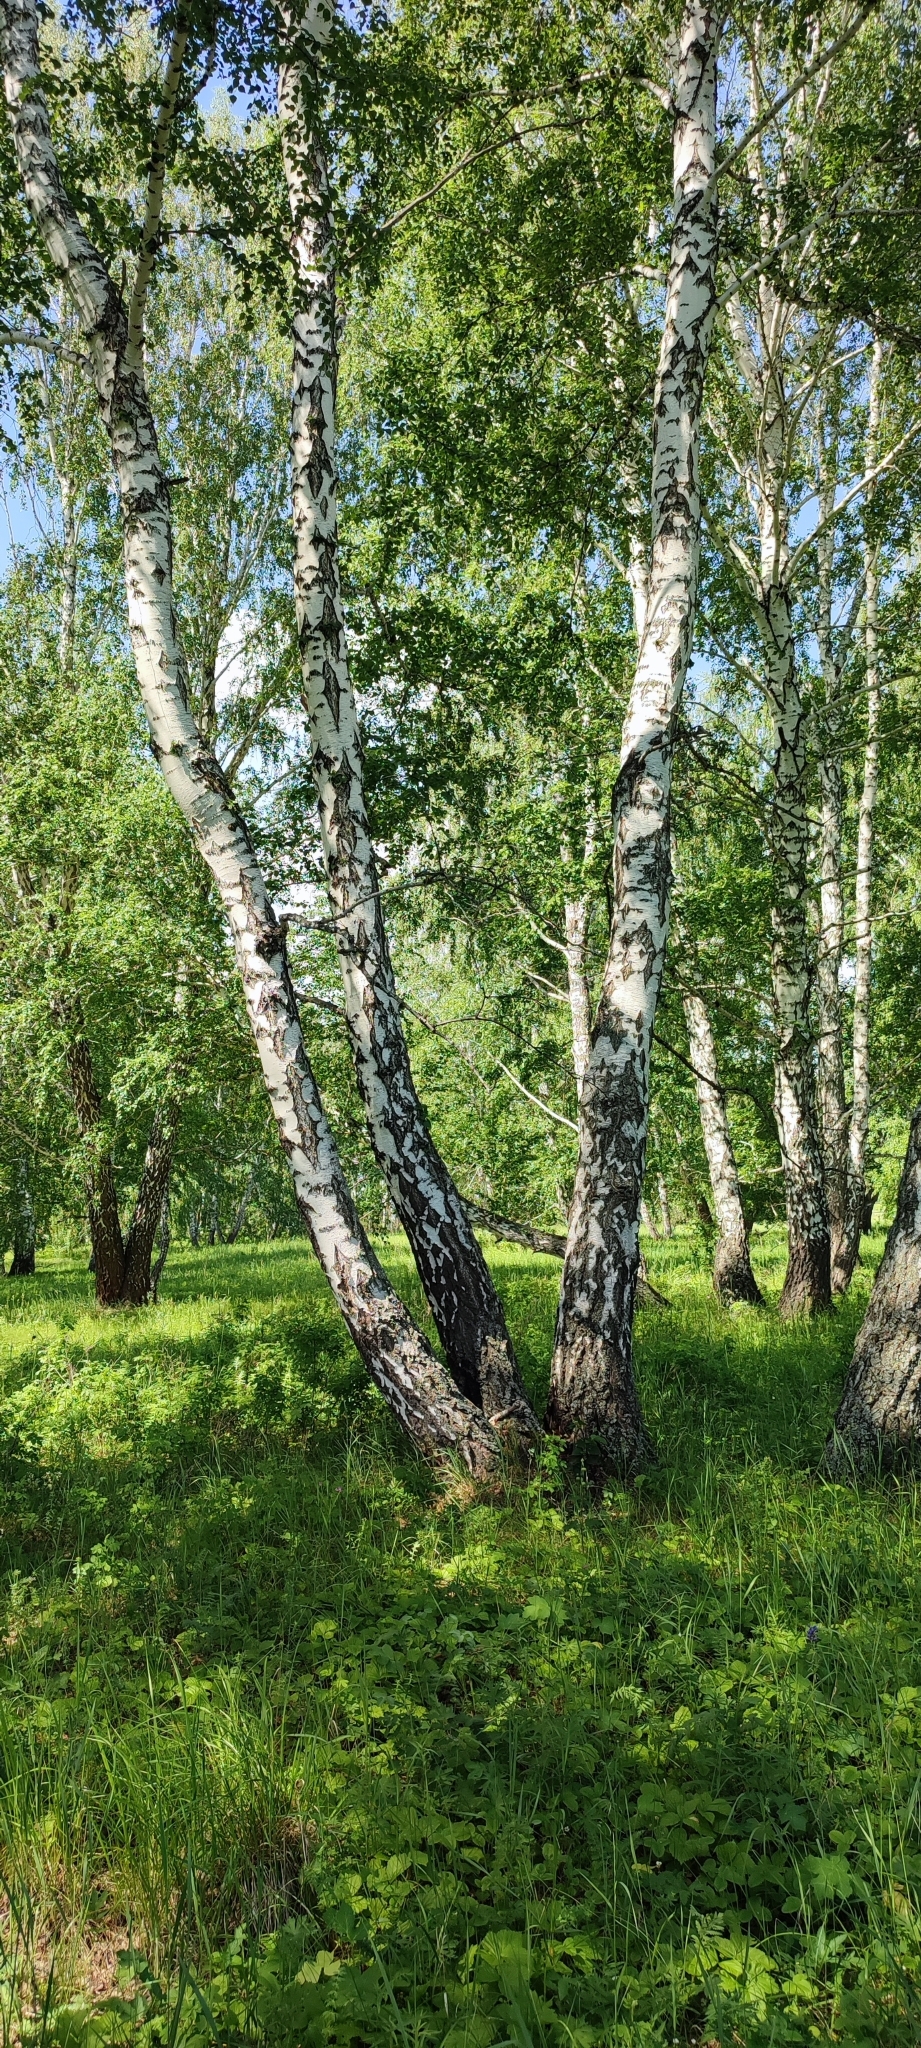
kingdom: Plantae
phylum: Tracheophyta
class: Magnoliopsida
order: Fagales
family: Betulaceae
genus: Betula
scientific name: Betula pendula
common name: Silver birch
